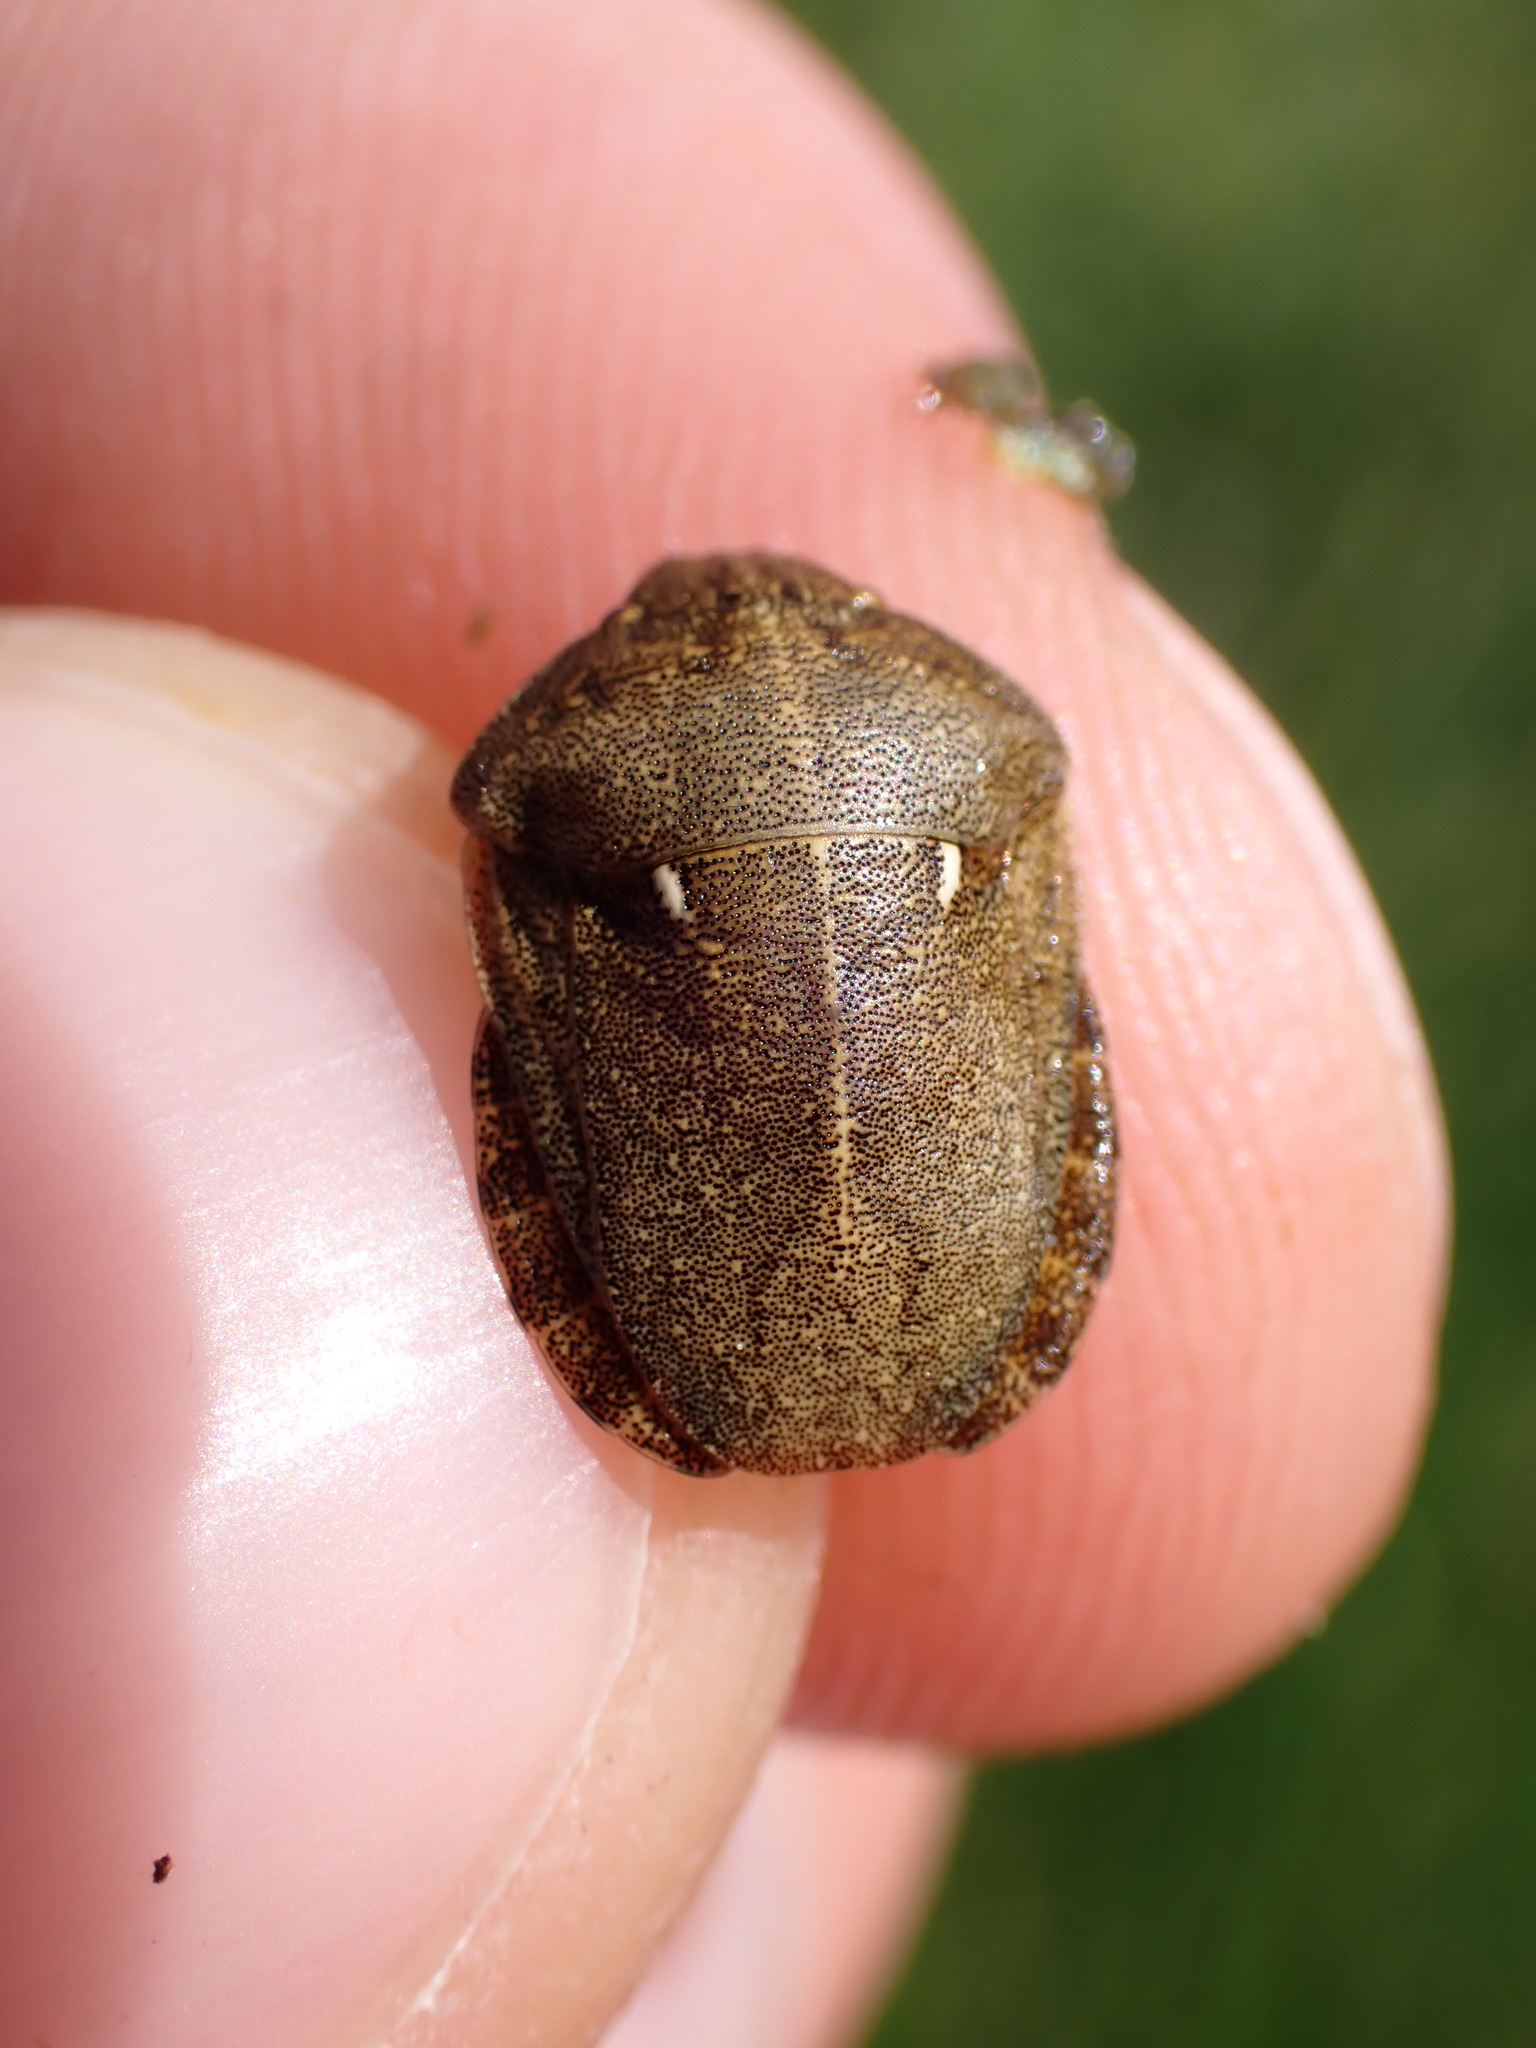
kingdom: Animalia
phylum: Arthropoda
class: Insecta
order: Hemiptera
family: Scutelleridae
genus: Eurygaster
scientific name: Eurygaster testudinaria
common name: Tortoise bug
